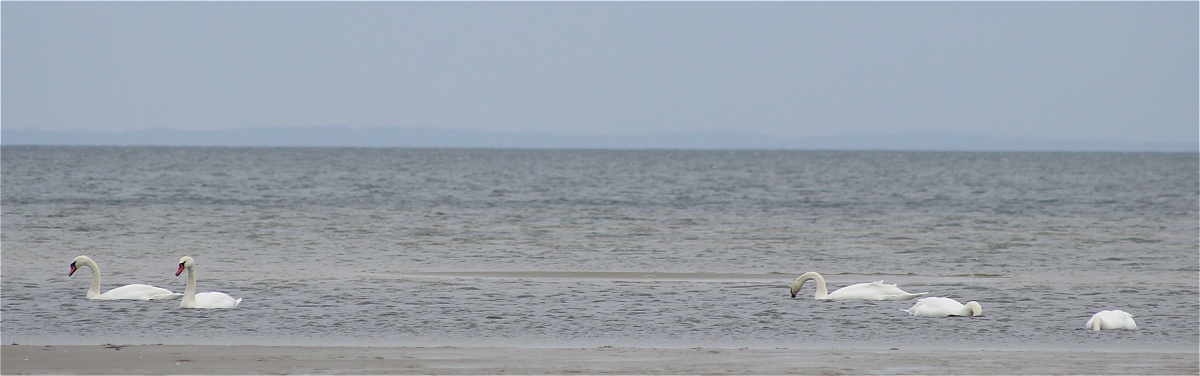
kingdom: Animalia
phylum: Chordata
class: Aves
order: Anseriformes
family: Anatidae
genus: Cygnus
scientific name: Cygnus olor
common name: Mute swan
